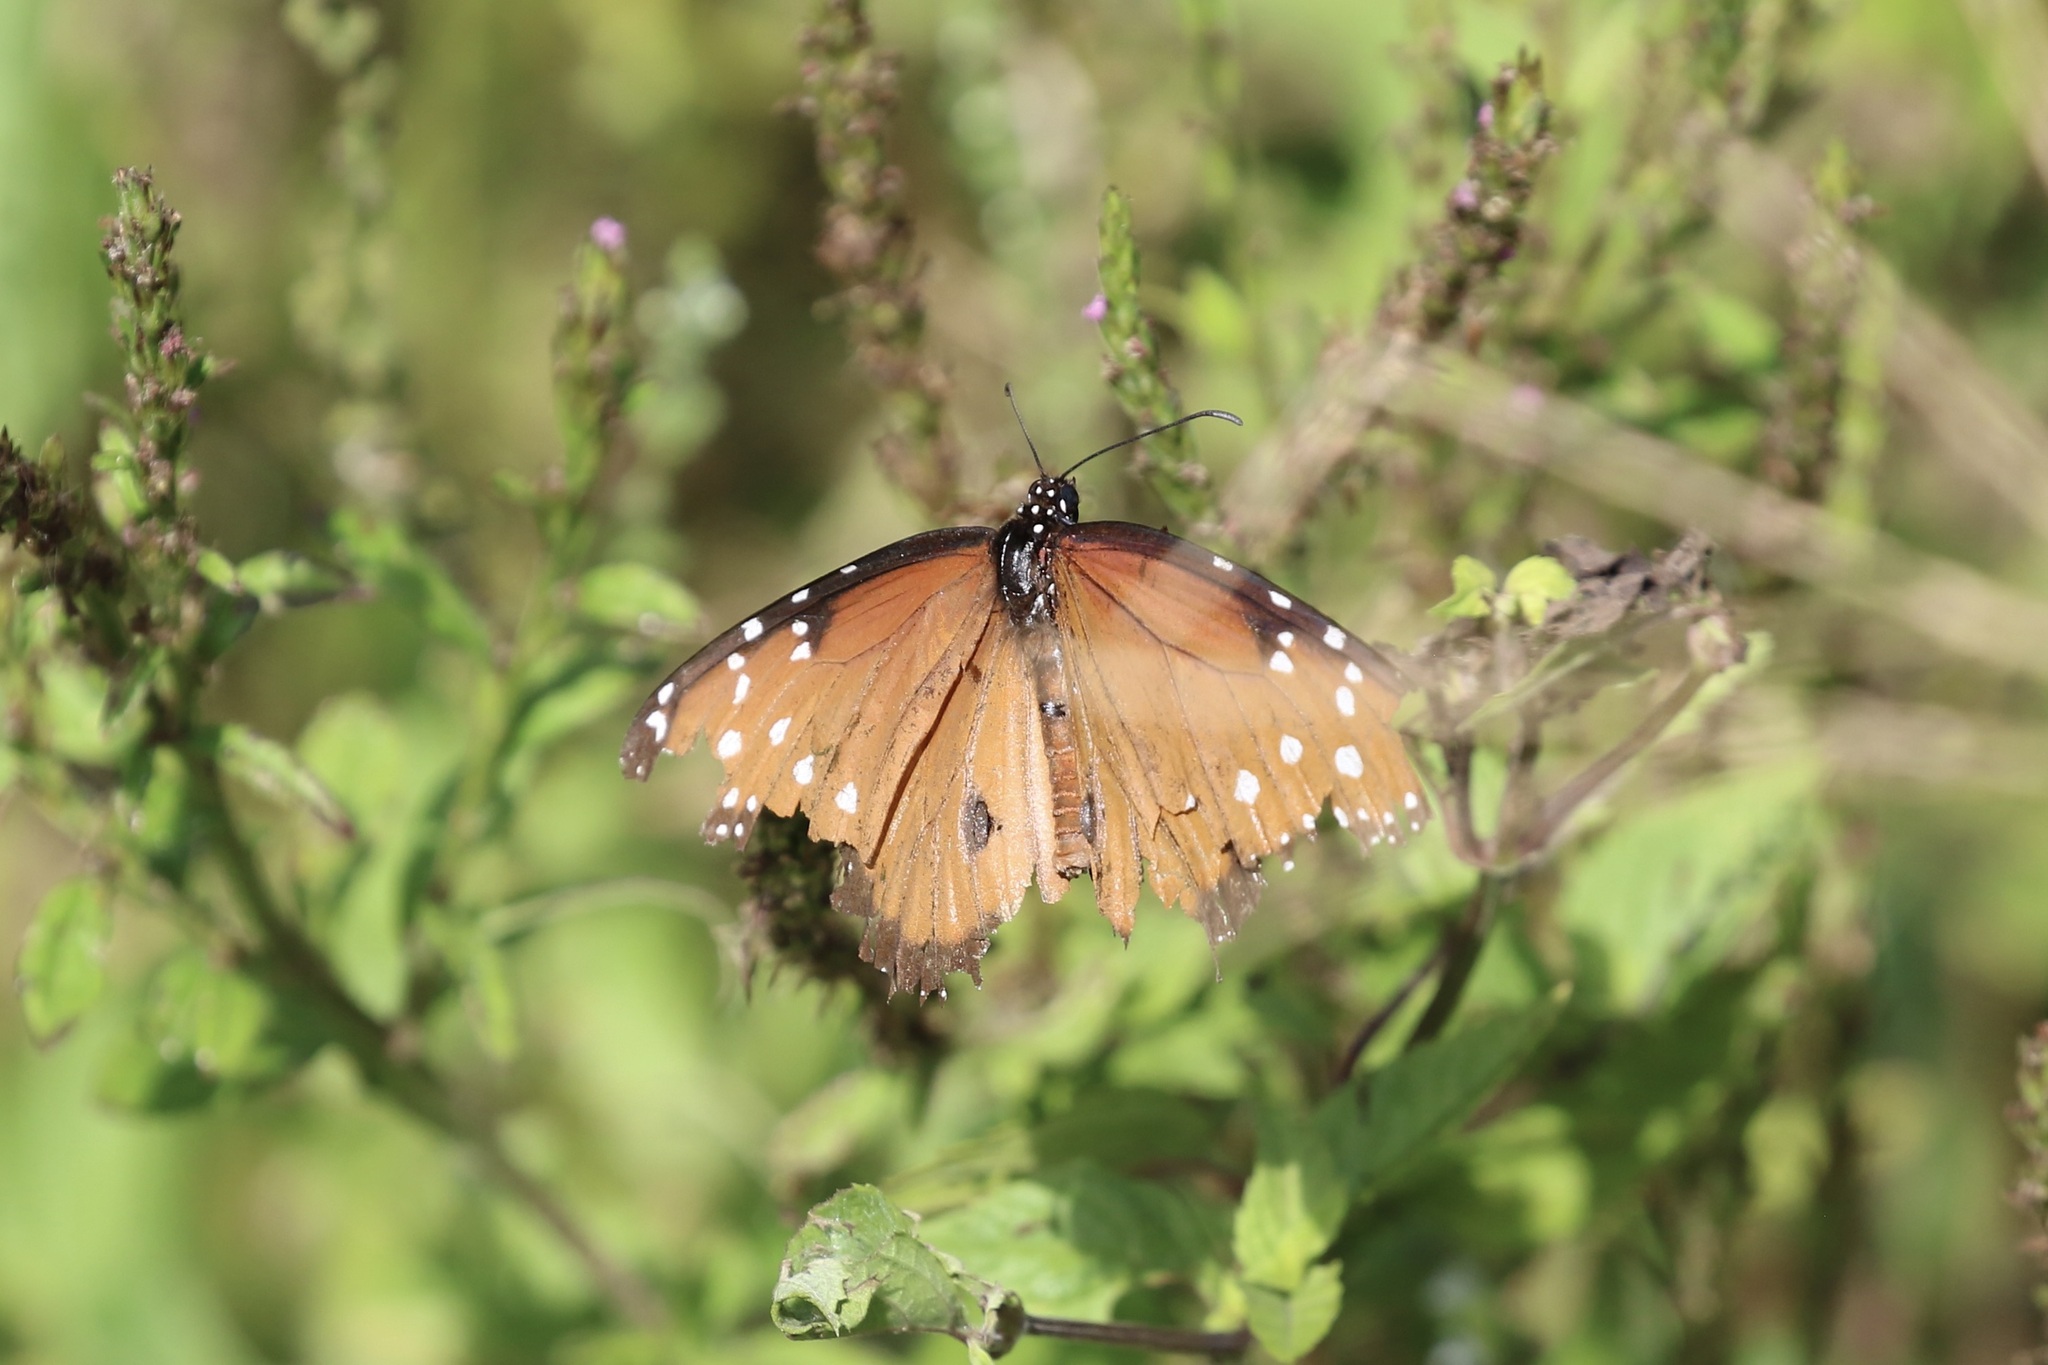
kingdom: Animalia
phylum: Arthropoda
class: Insecta
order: Lepidoptera
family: Nymphalidae
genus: Danaus
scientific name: Danaus gilippus
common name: Queen
